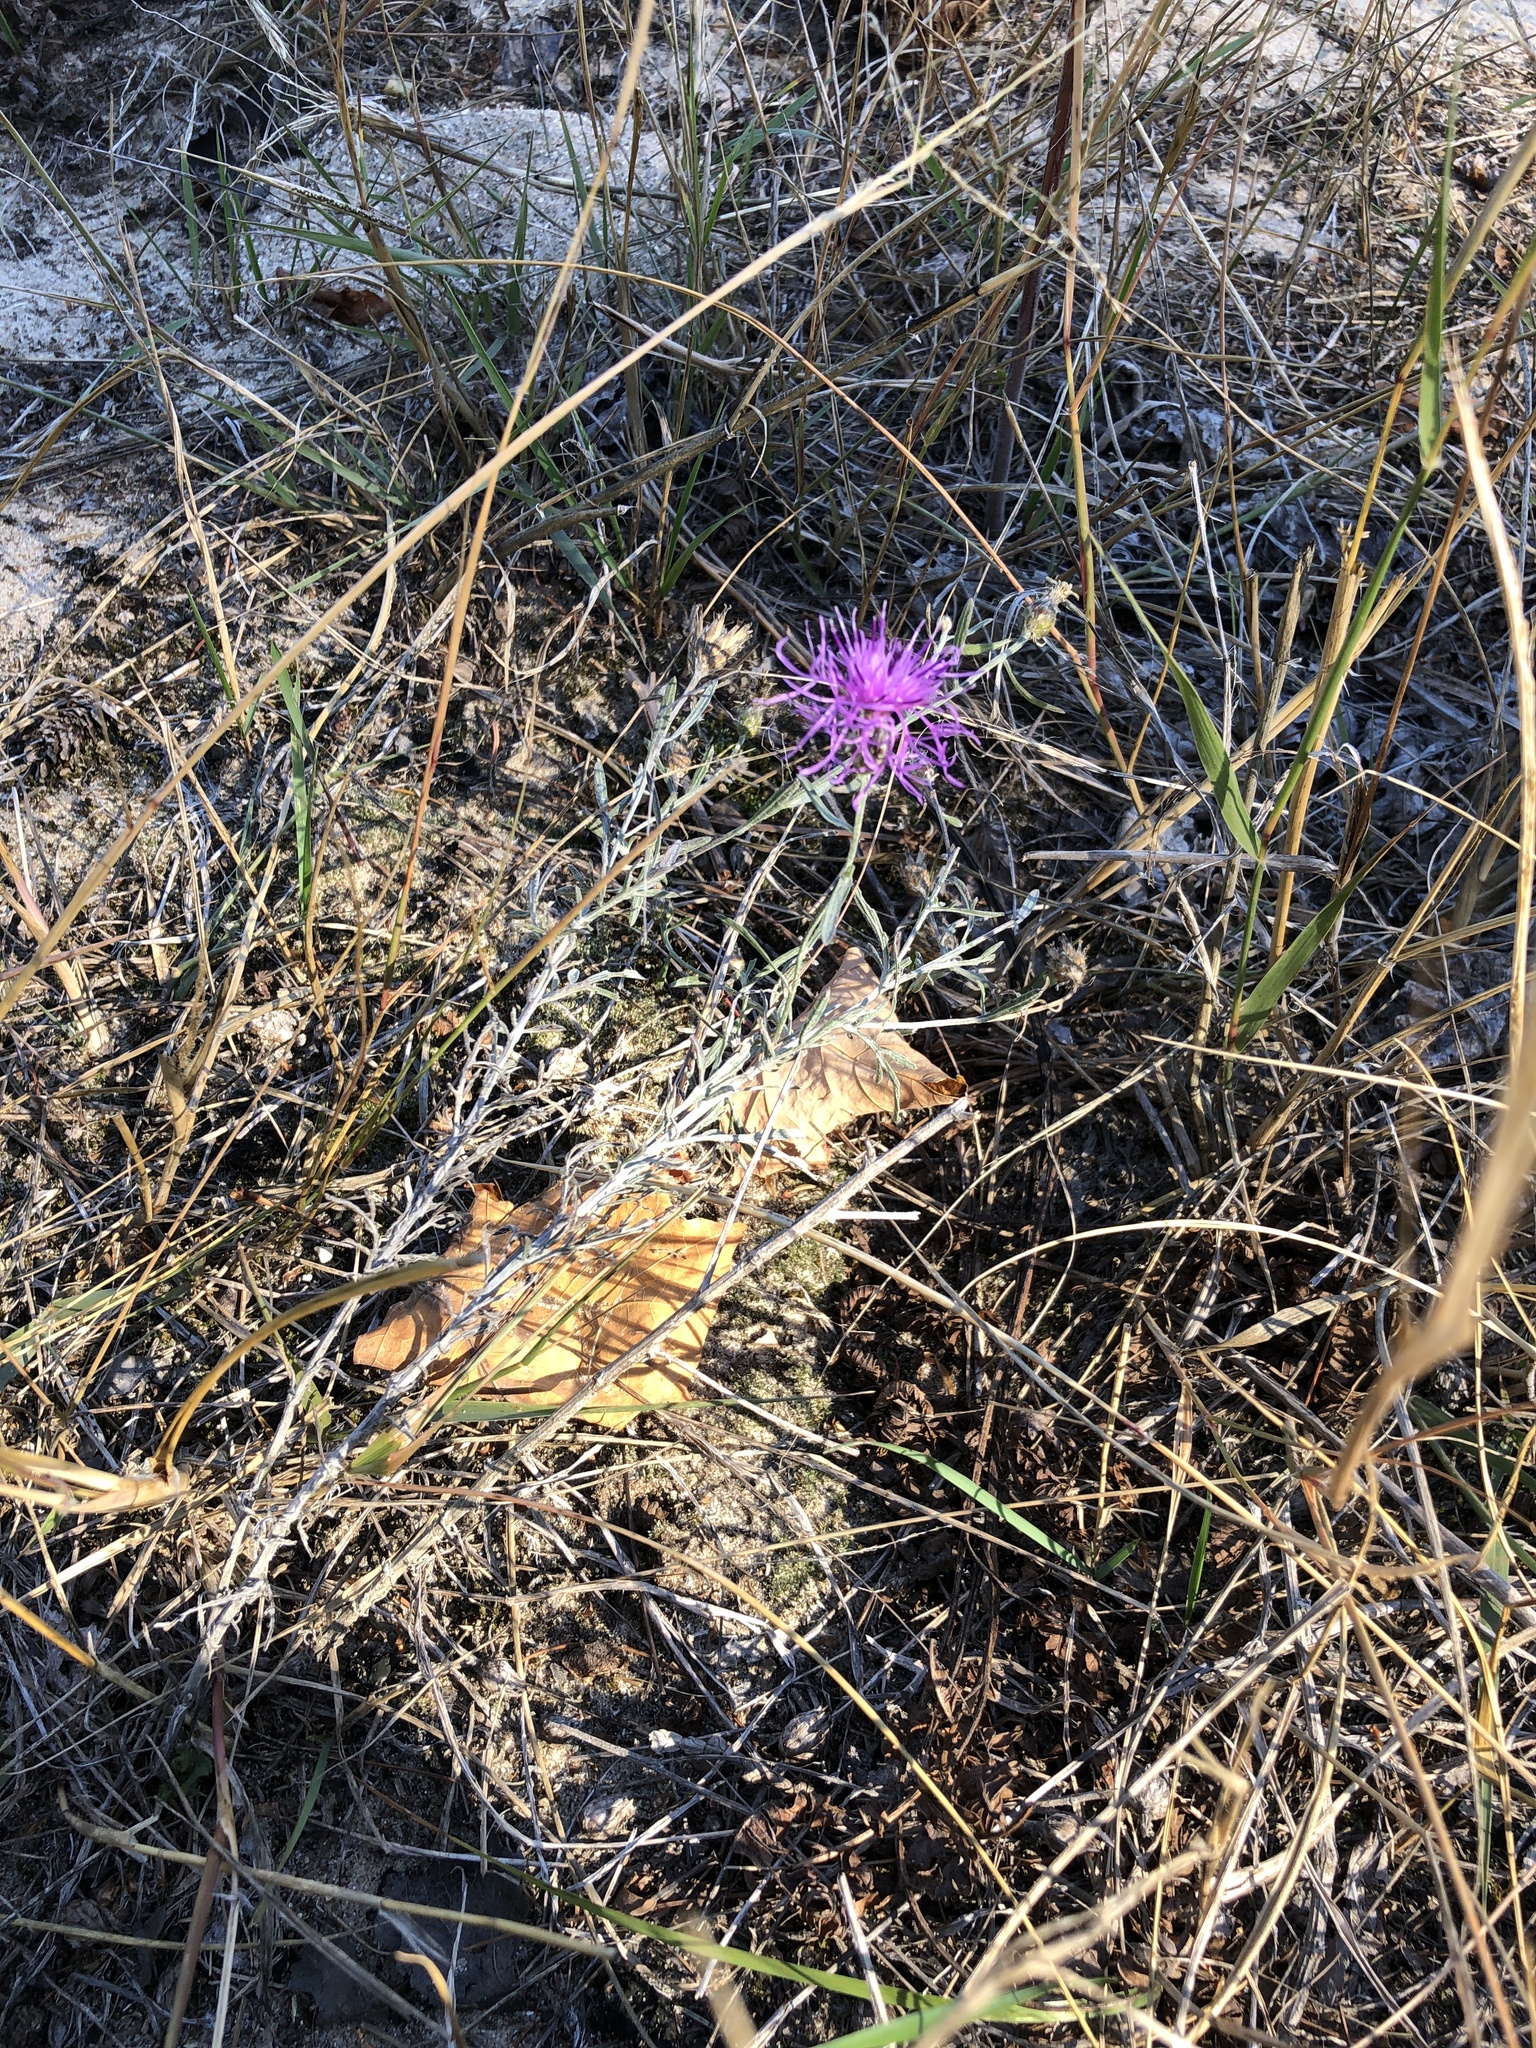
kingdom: Plantae
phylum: Tracheophyta
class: Magnoliopsida
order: Asterales
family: Asteraceae
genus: Centaurea
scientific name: Centaurea stoebe
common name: Spotted knapweed
